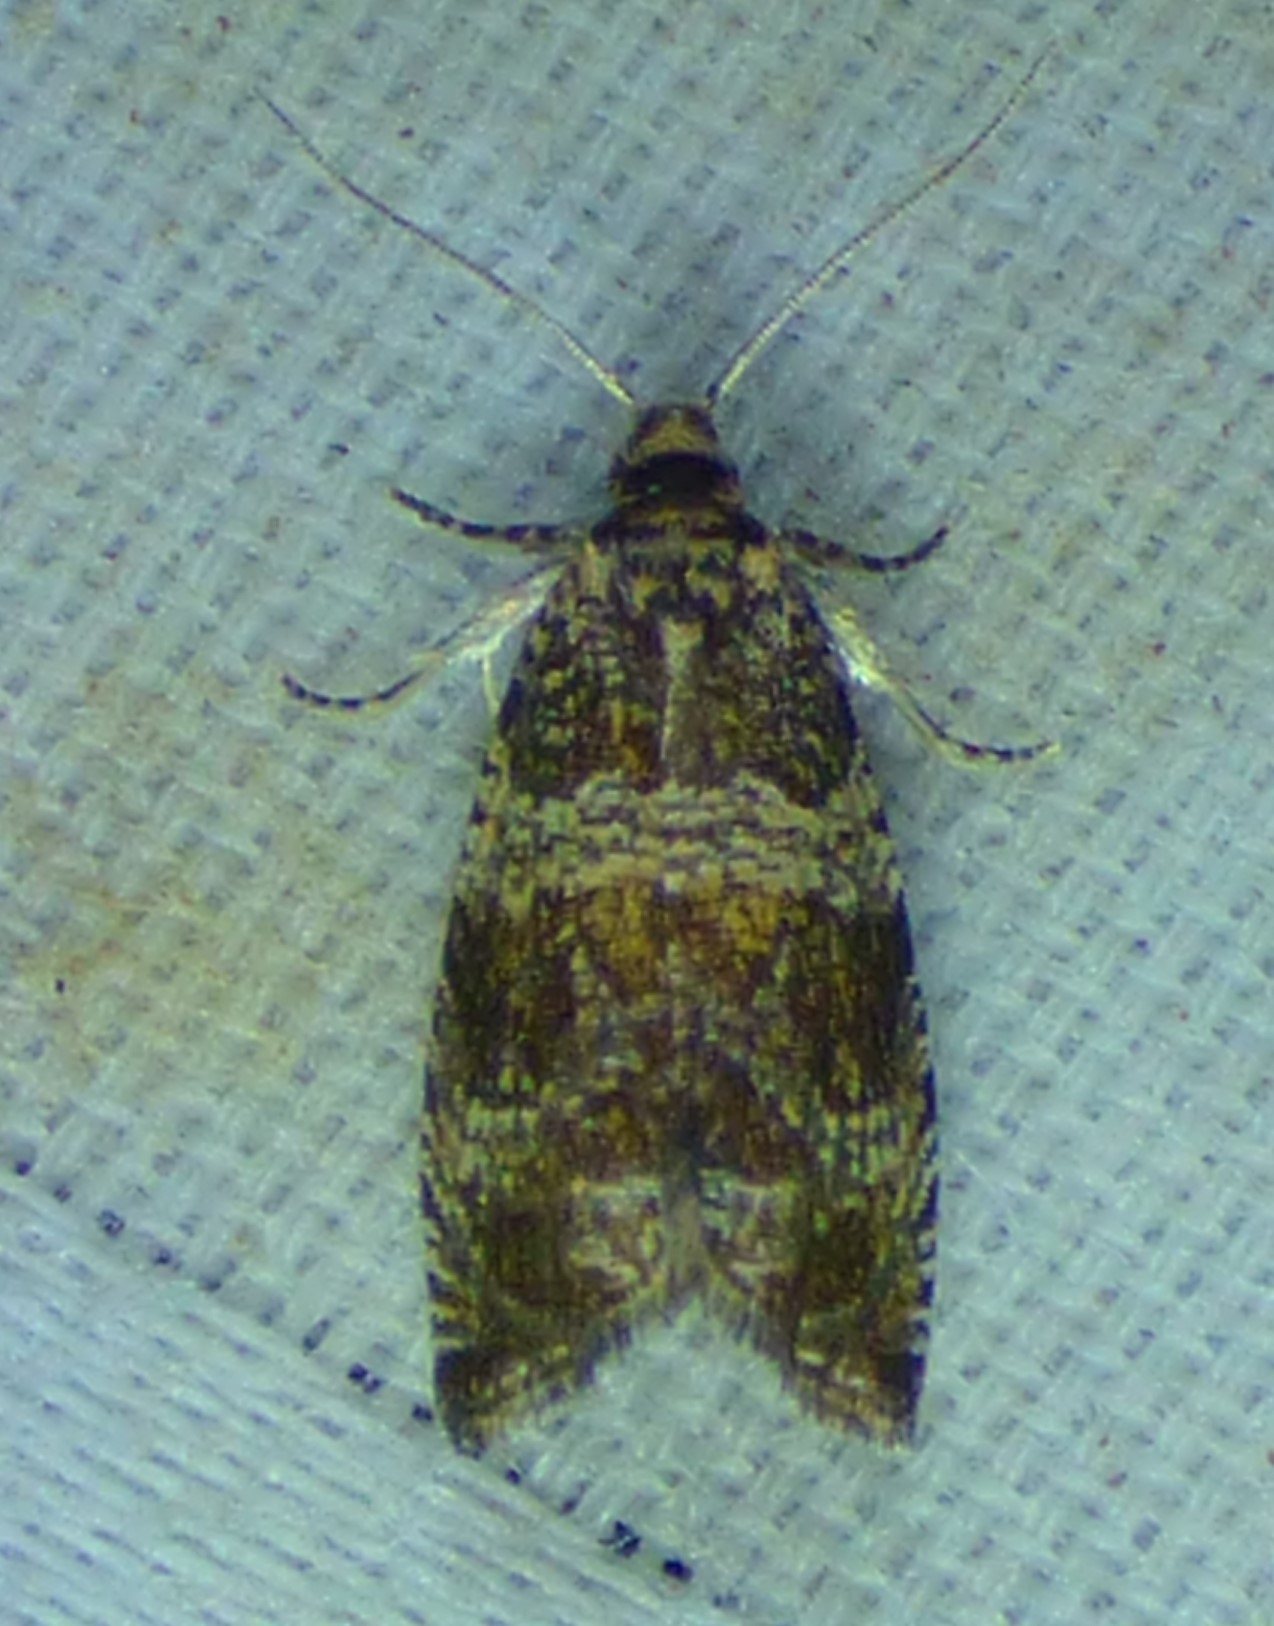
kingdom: Animalia
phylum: Arthropoda
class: Insecta
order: Lepidoptera
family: Tortricidae
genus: Celypha
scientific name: Celypha cespitana
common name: Thyme marble
